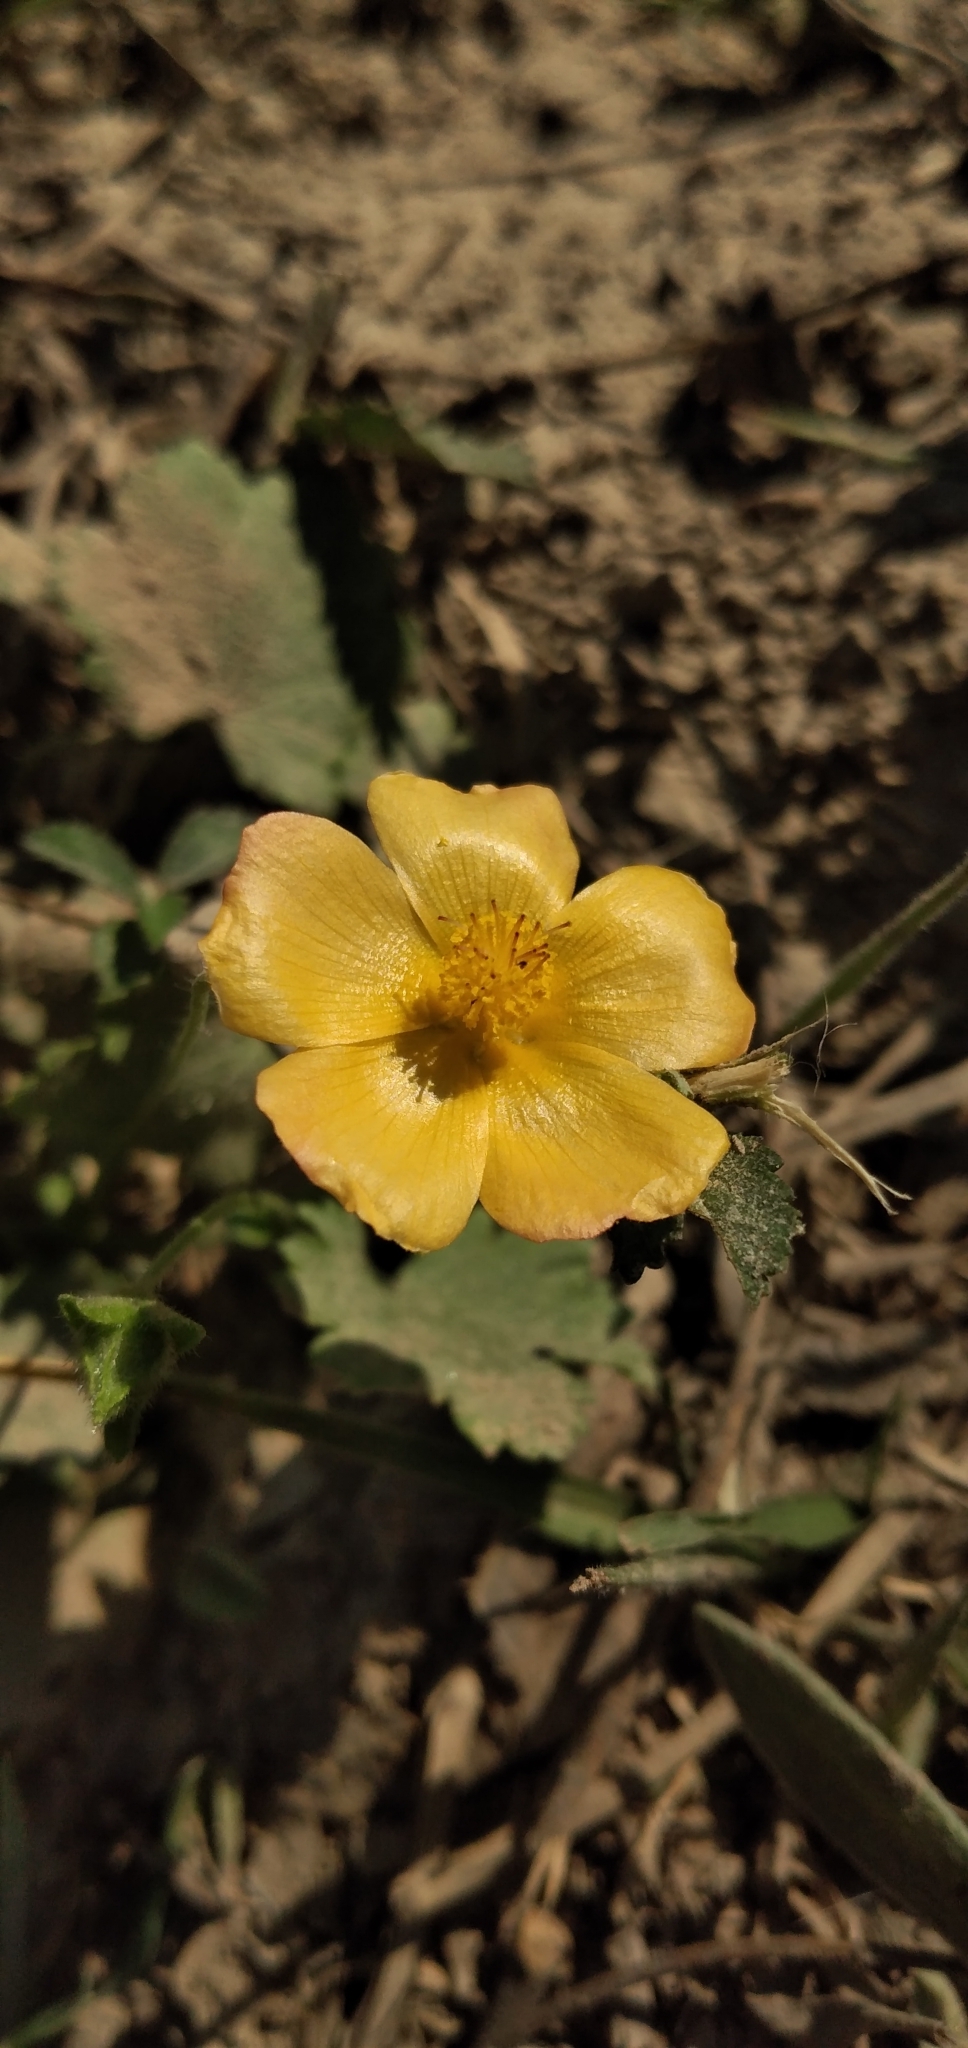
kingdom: Plantae
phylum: Tracheophyta
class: Magnoliopsida
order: Malvales
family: Malvaceae
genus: Modiolastrum
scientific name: Modiolastrum malvifolium
